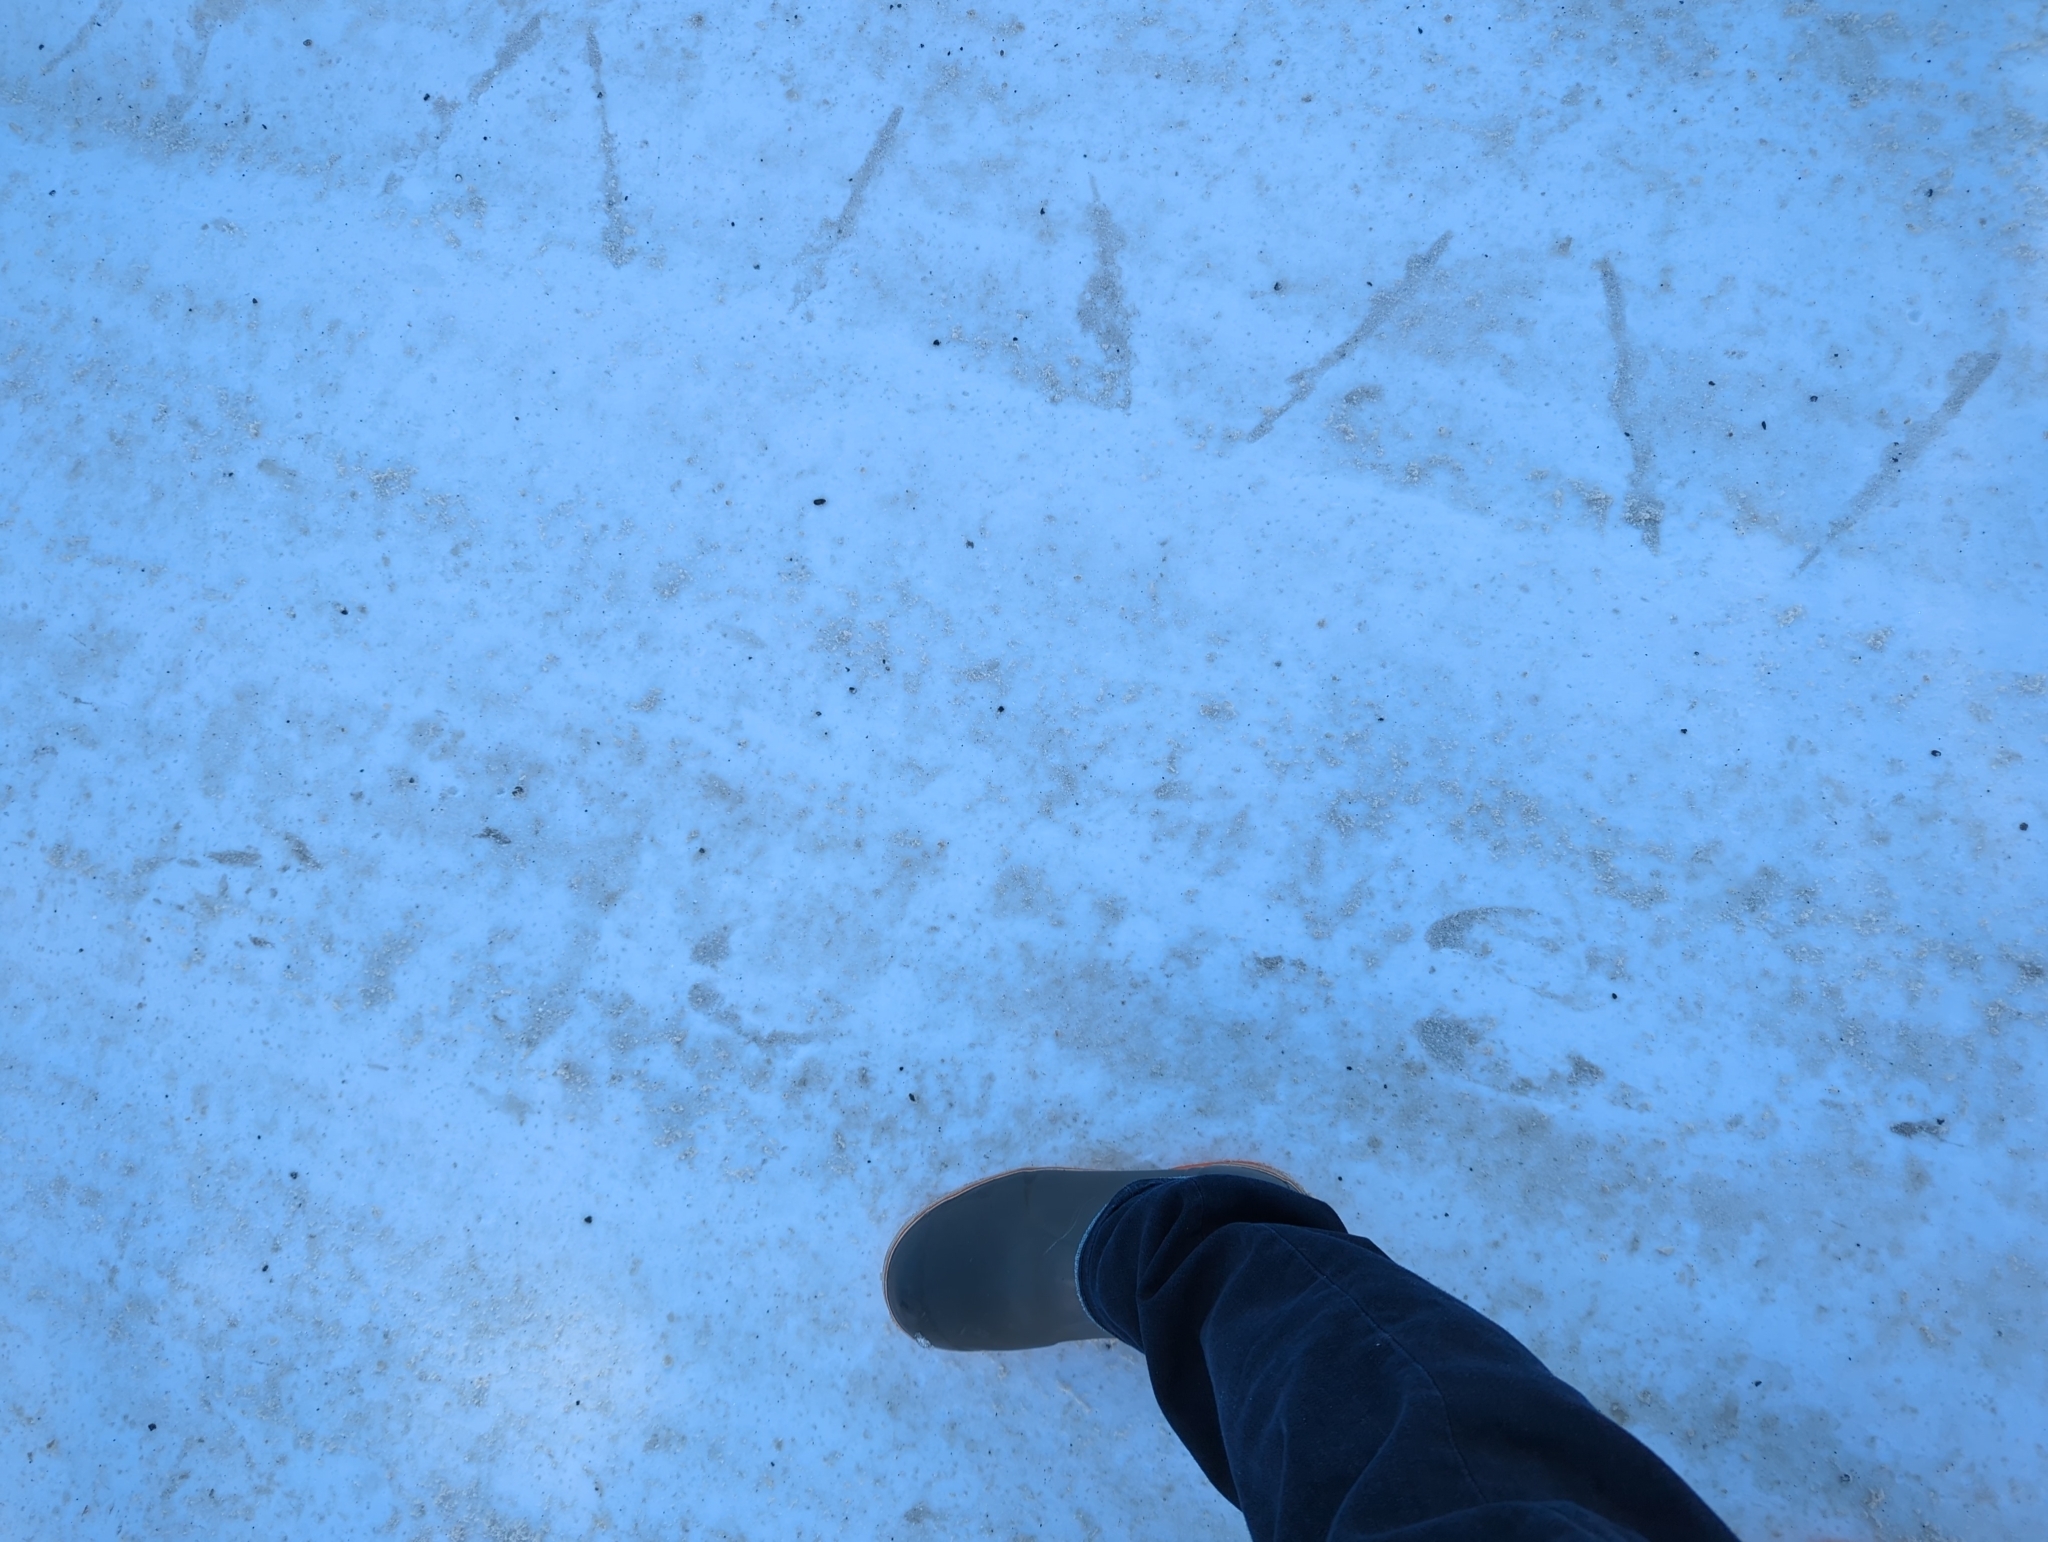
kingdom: Animalia
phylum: Chordata
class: Mammalia
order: Artiodactyla
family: Cervidae
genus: Alces
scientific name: Alces alces
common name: Moose
